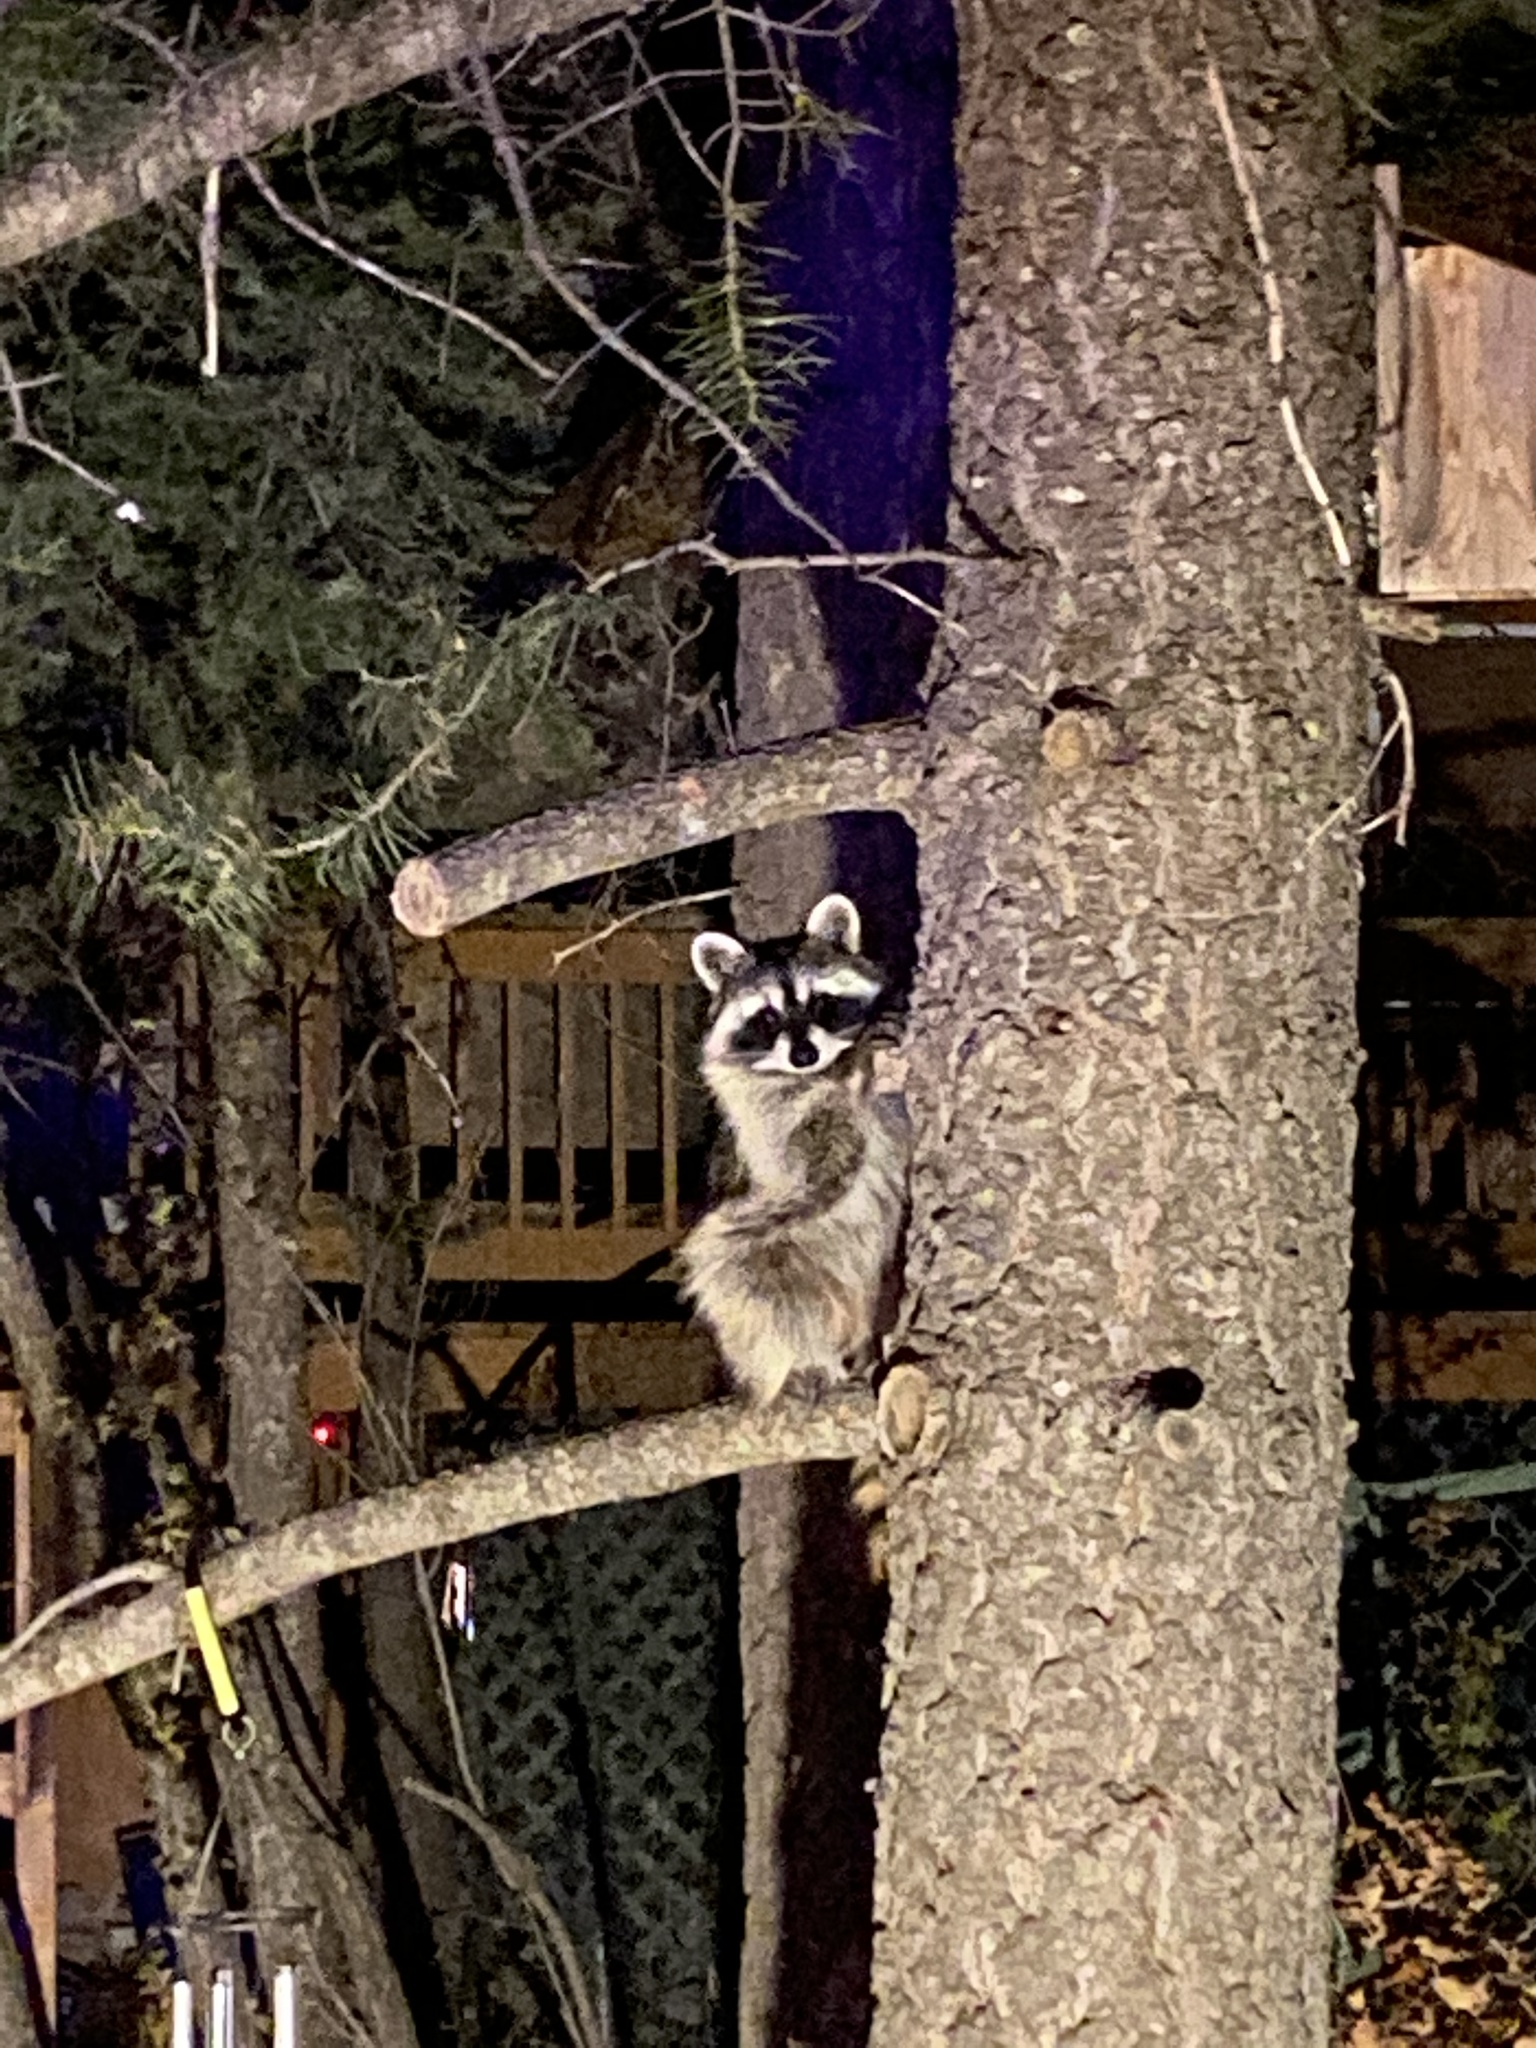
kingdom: Animalia
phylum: Chordata
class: Mammalia
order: Carnivora
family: Procyonidae
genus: Procyon
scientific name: Procyon lotor
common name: Raccoon
